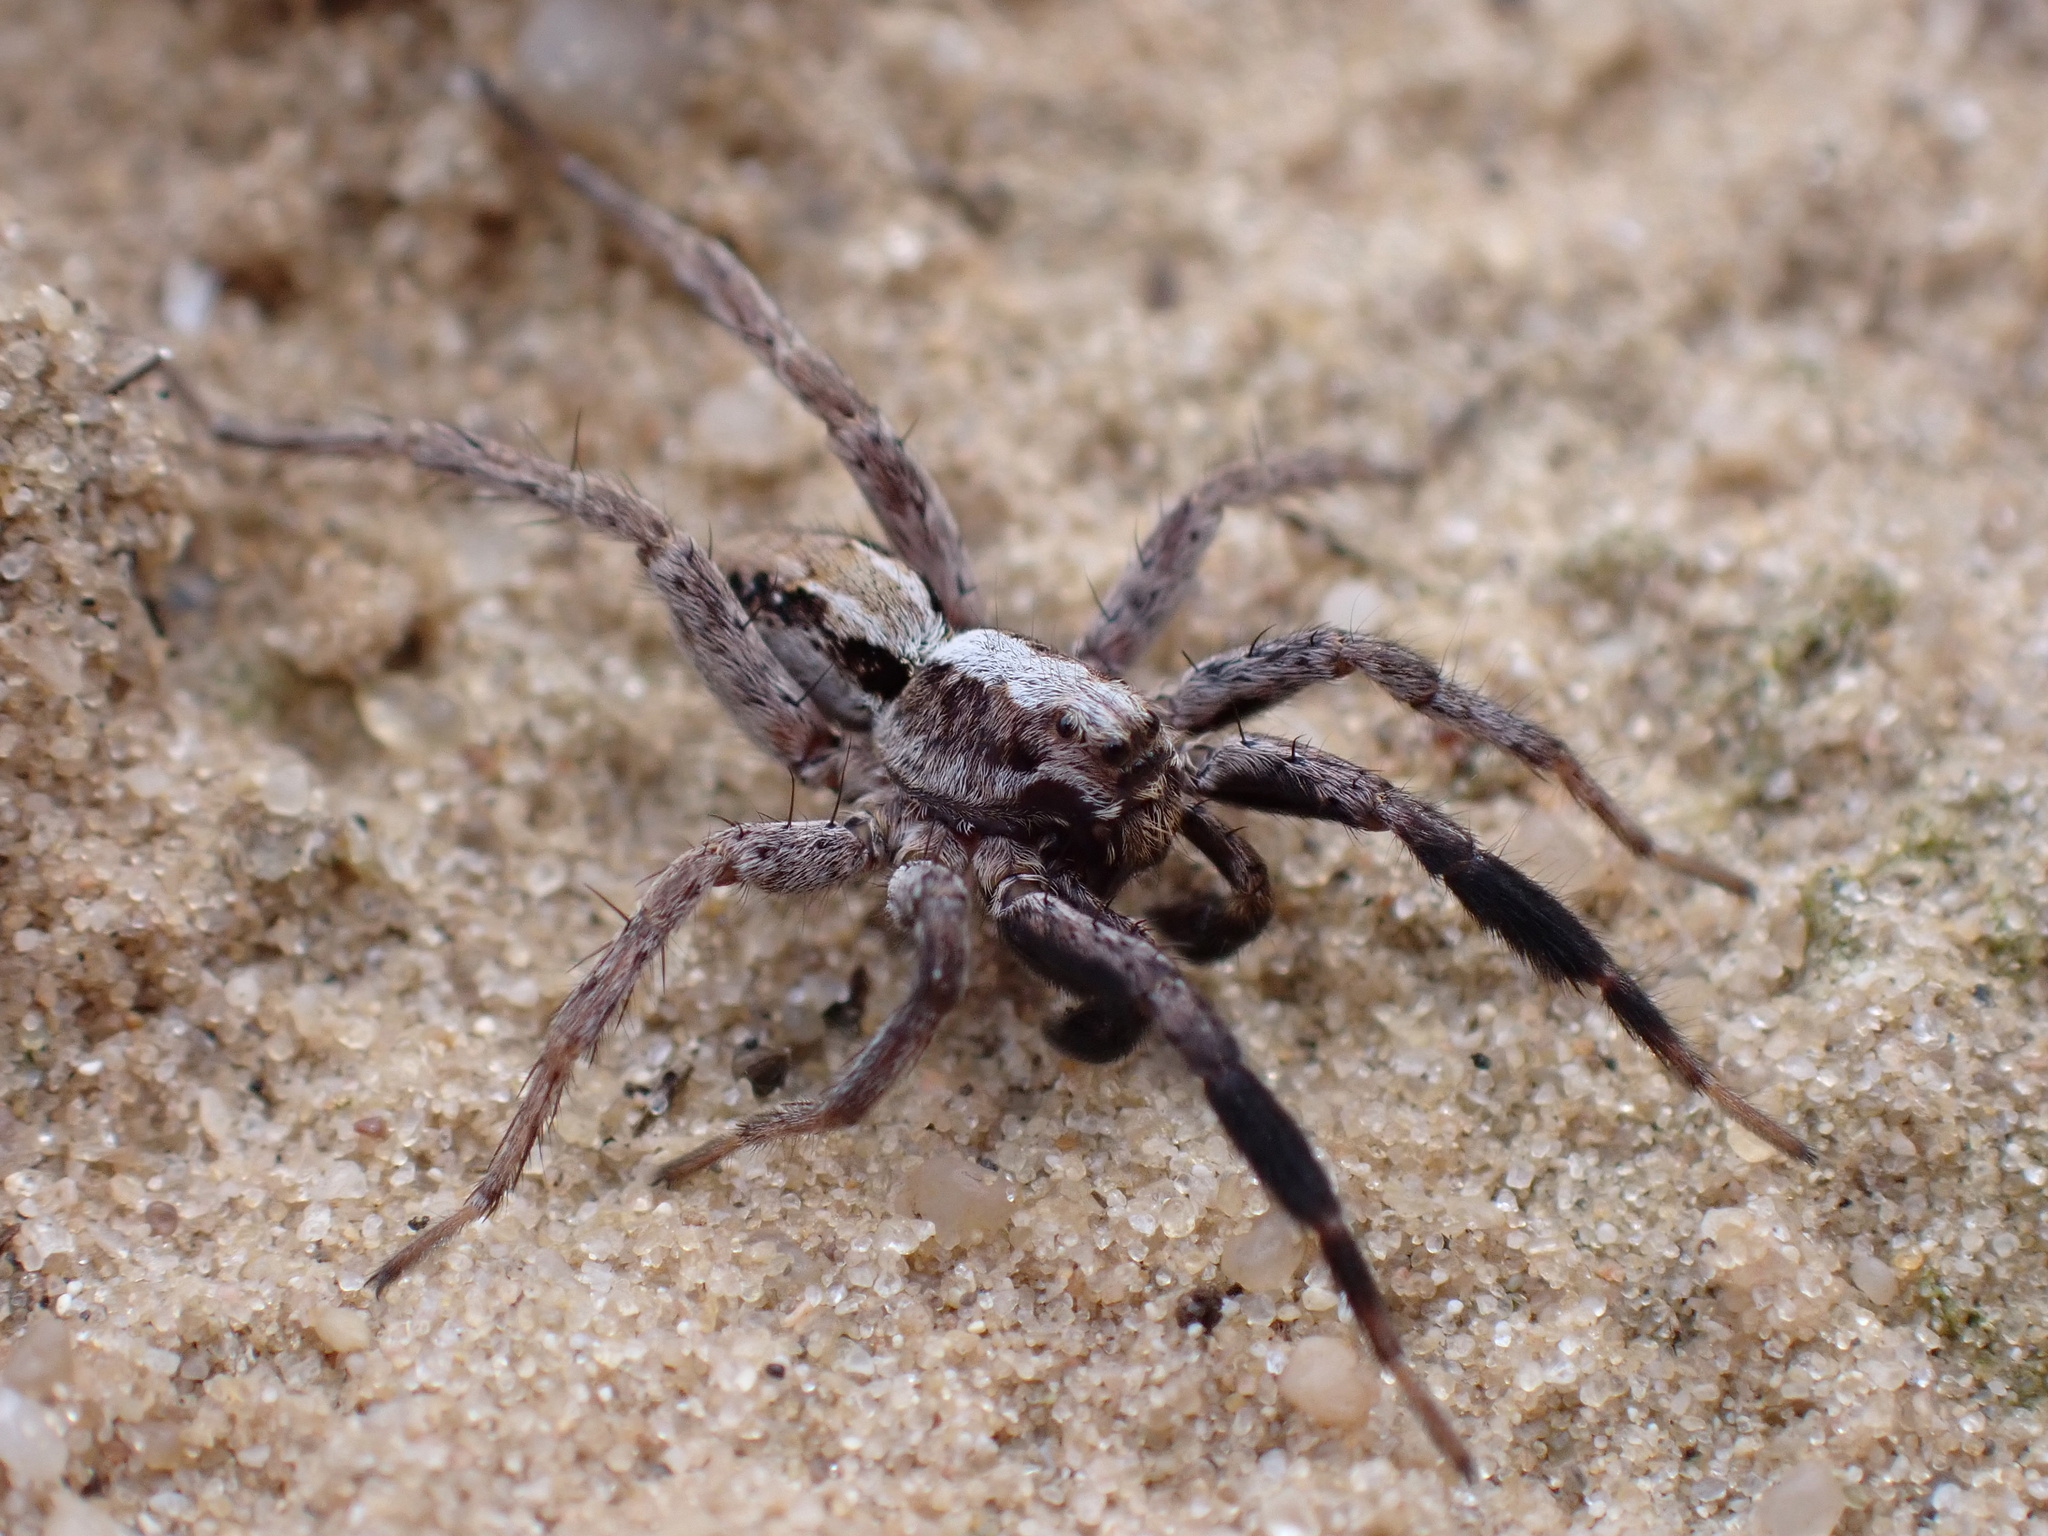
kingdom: Animalia
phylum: Arthropoda
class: Arachnida
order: Araneae
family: Lycosidae
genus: Alopecosa
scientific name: Alopecosa barbipes
